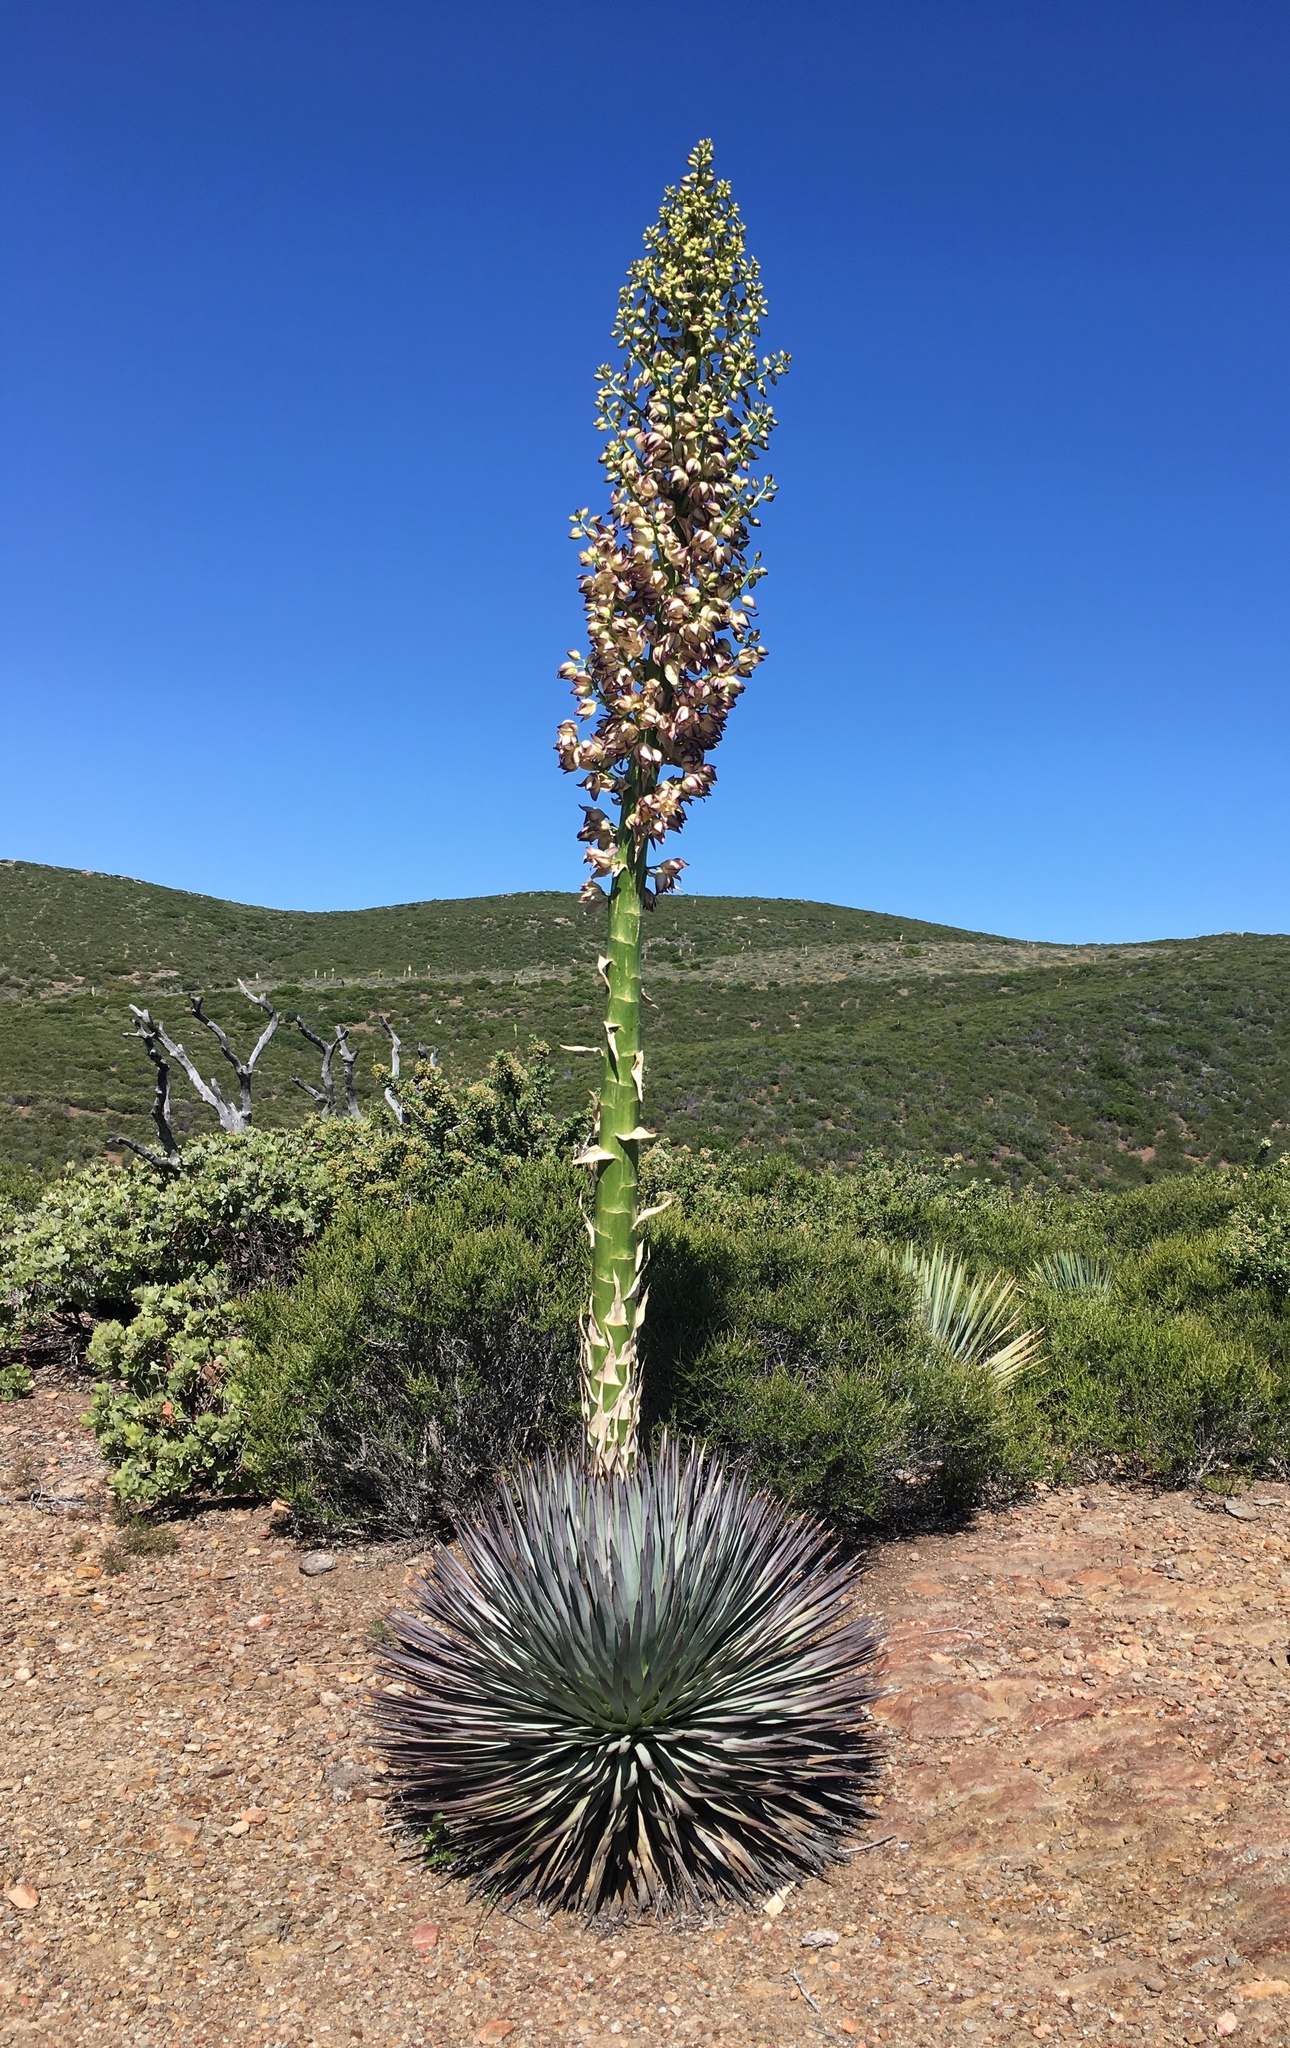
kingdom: Plantae
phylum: Tracheophyta
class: Liliopsida
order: Asparagales
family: Asparagaceae
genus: Hesperoyucca
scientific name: Hesperoyucca whipplei
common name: Our lord's-candle
